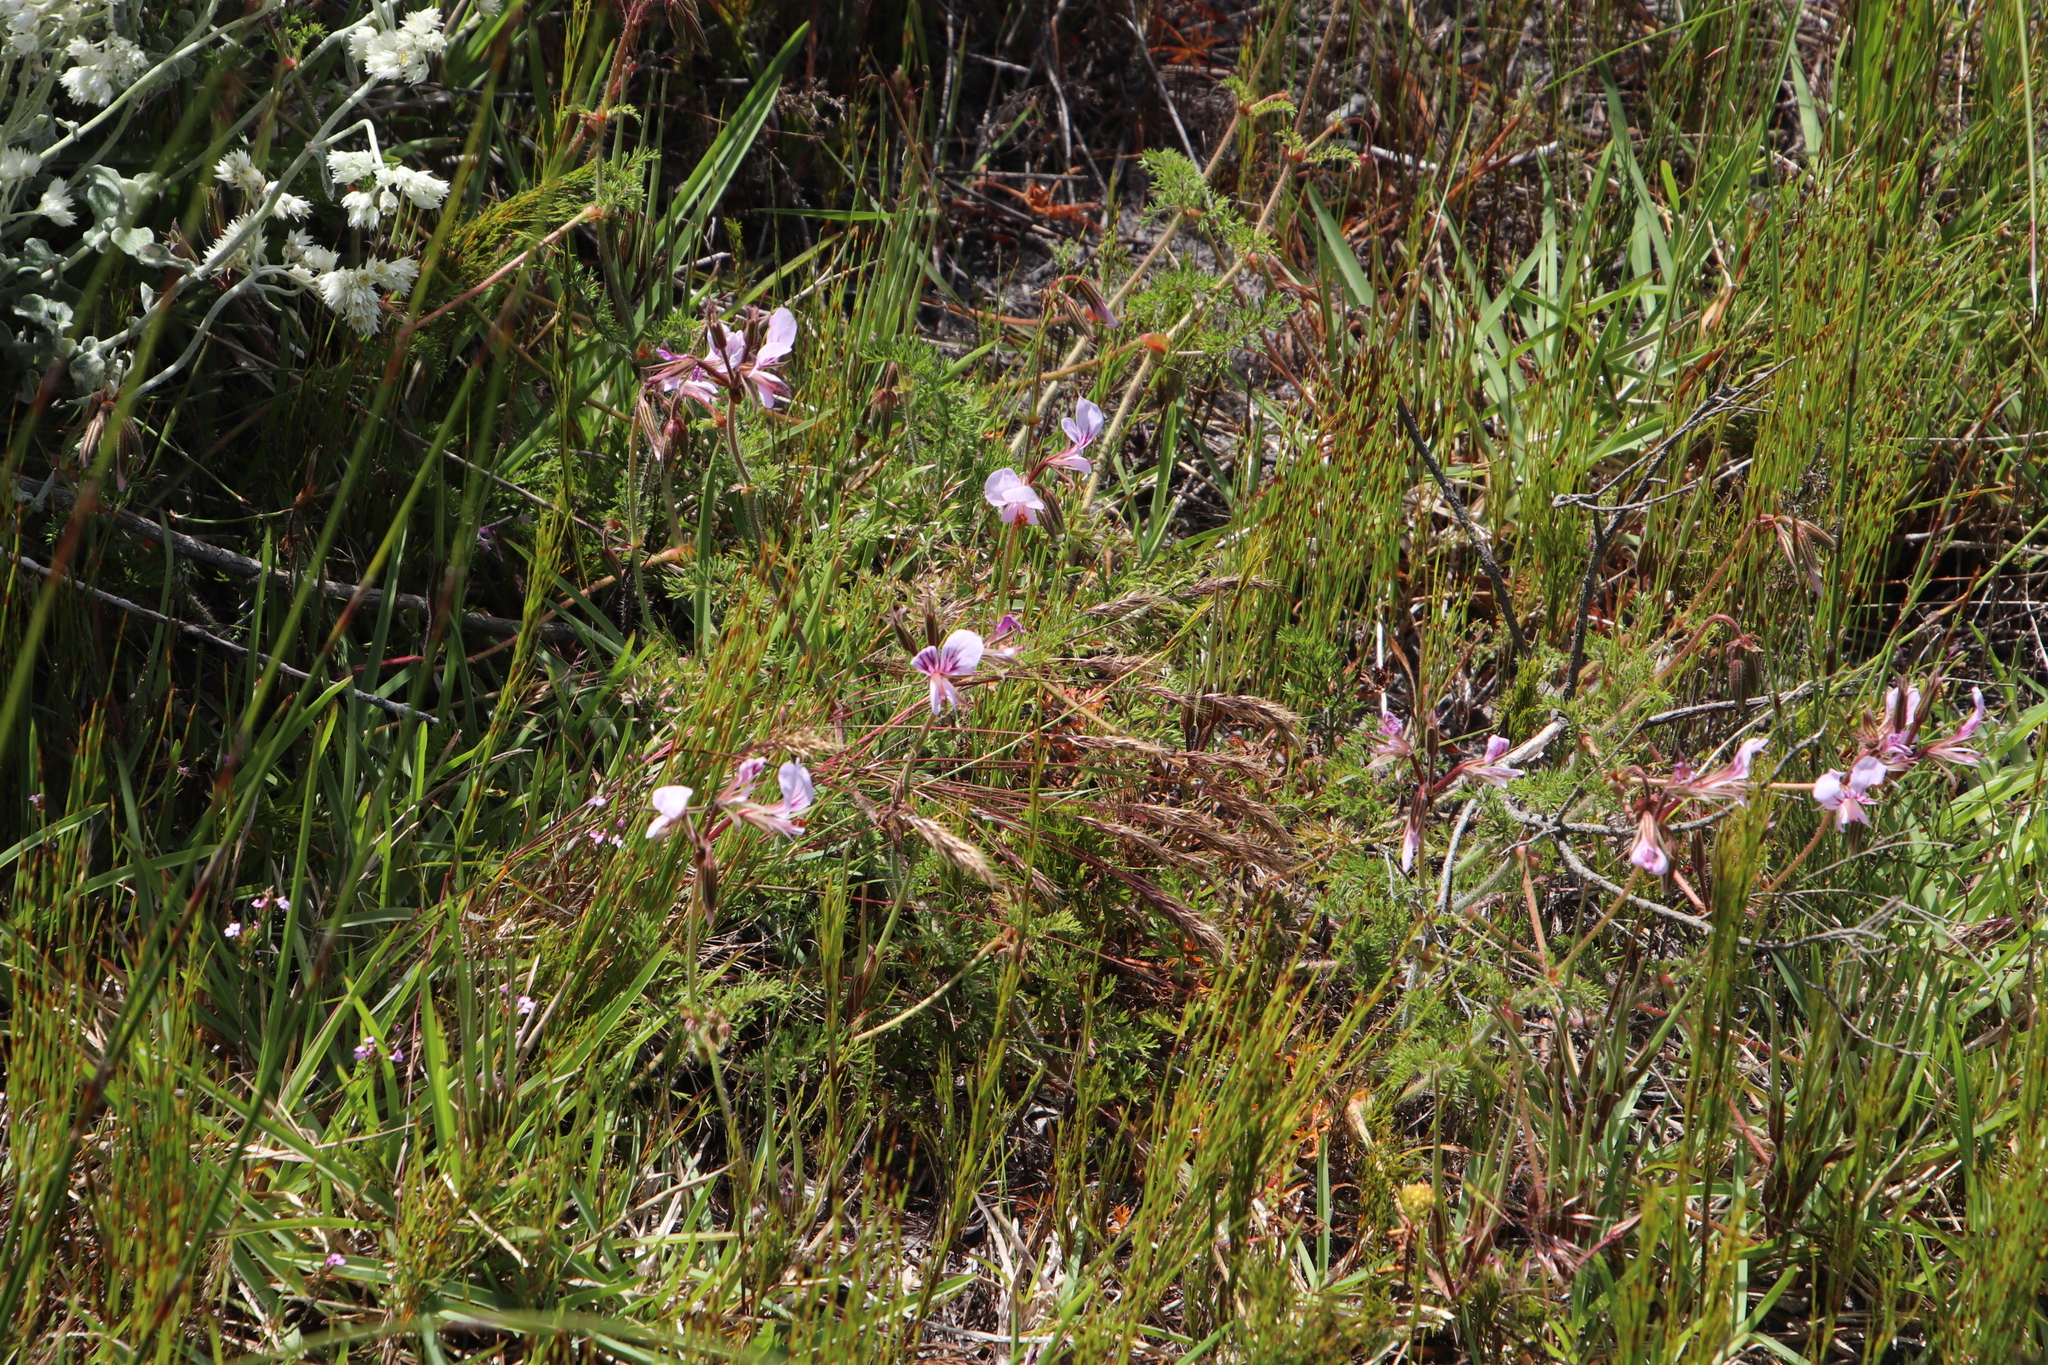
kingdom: Plantae
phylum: Tracheophyta
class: Magnoliopsida
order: Geraniales
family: Geraniaceae
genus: Pelargonium
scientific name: Pelargonium myrrhifolium
